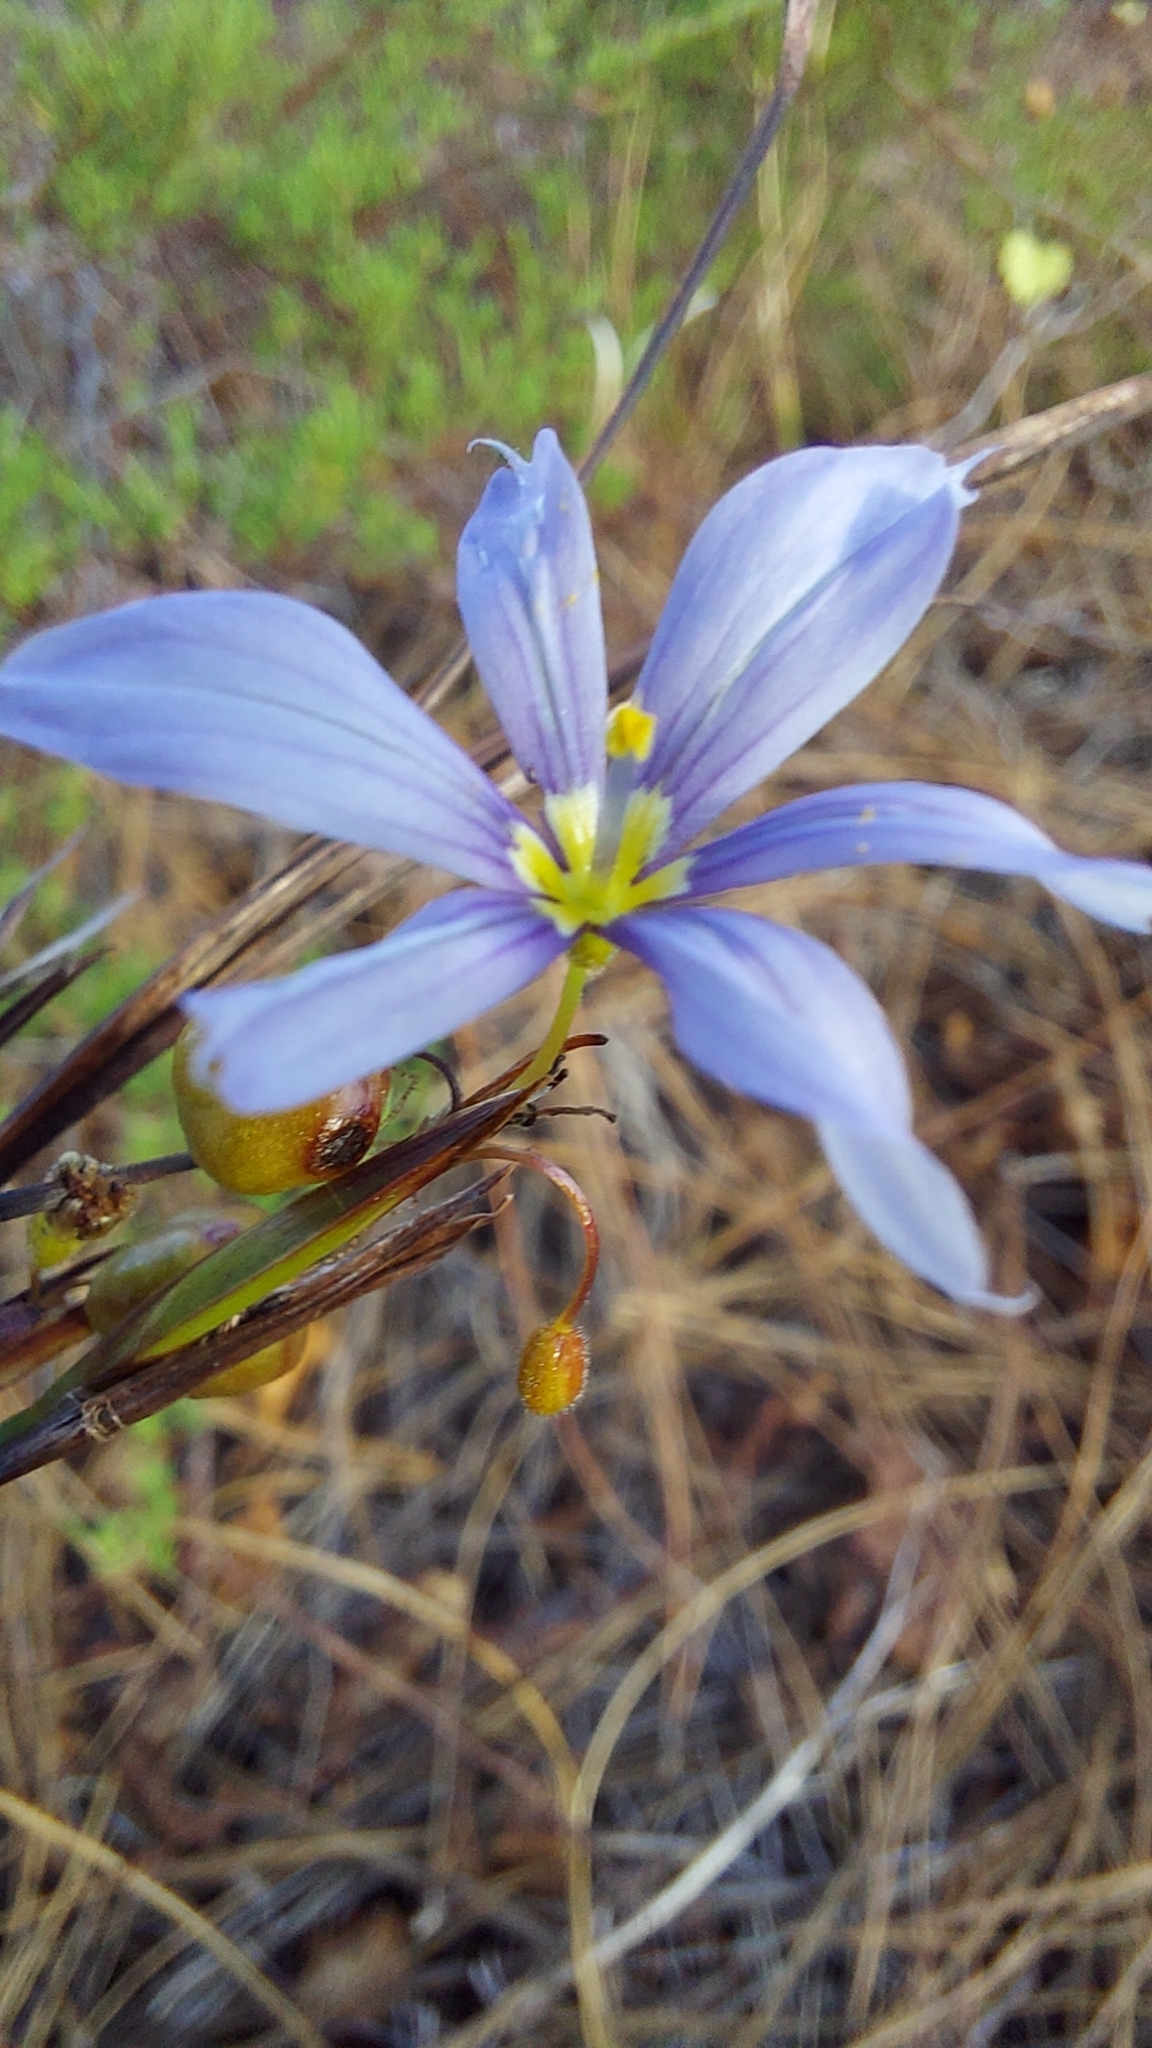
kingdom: Plantae
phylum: Tracheophyta
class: Liliopsida
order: Asparagales
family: Iridaceae
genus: Sisyrinchium
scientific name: Sisyrinchium xerophyllum
